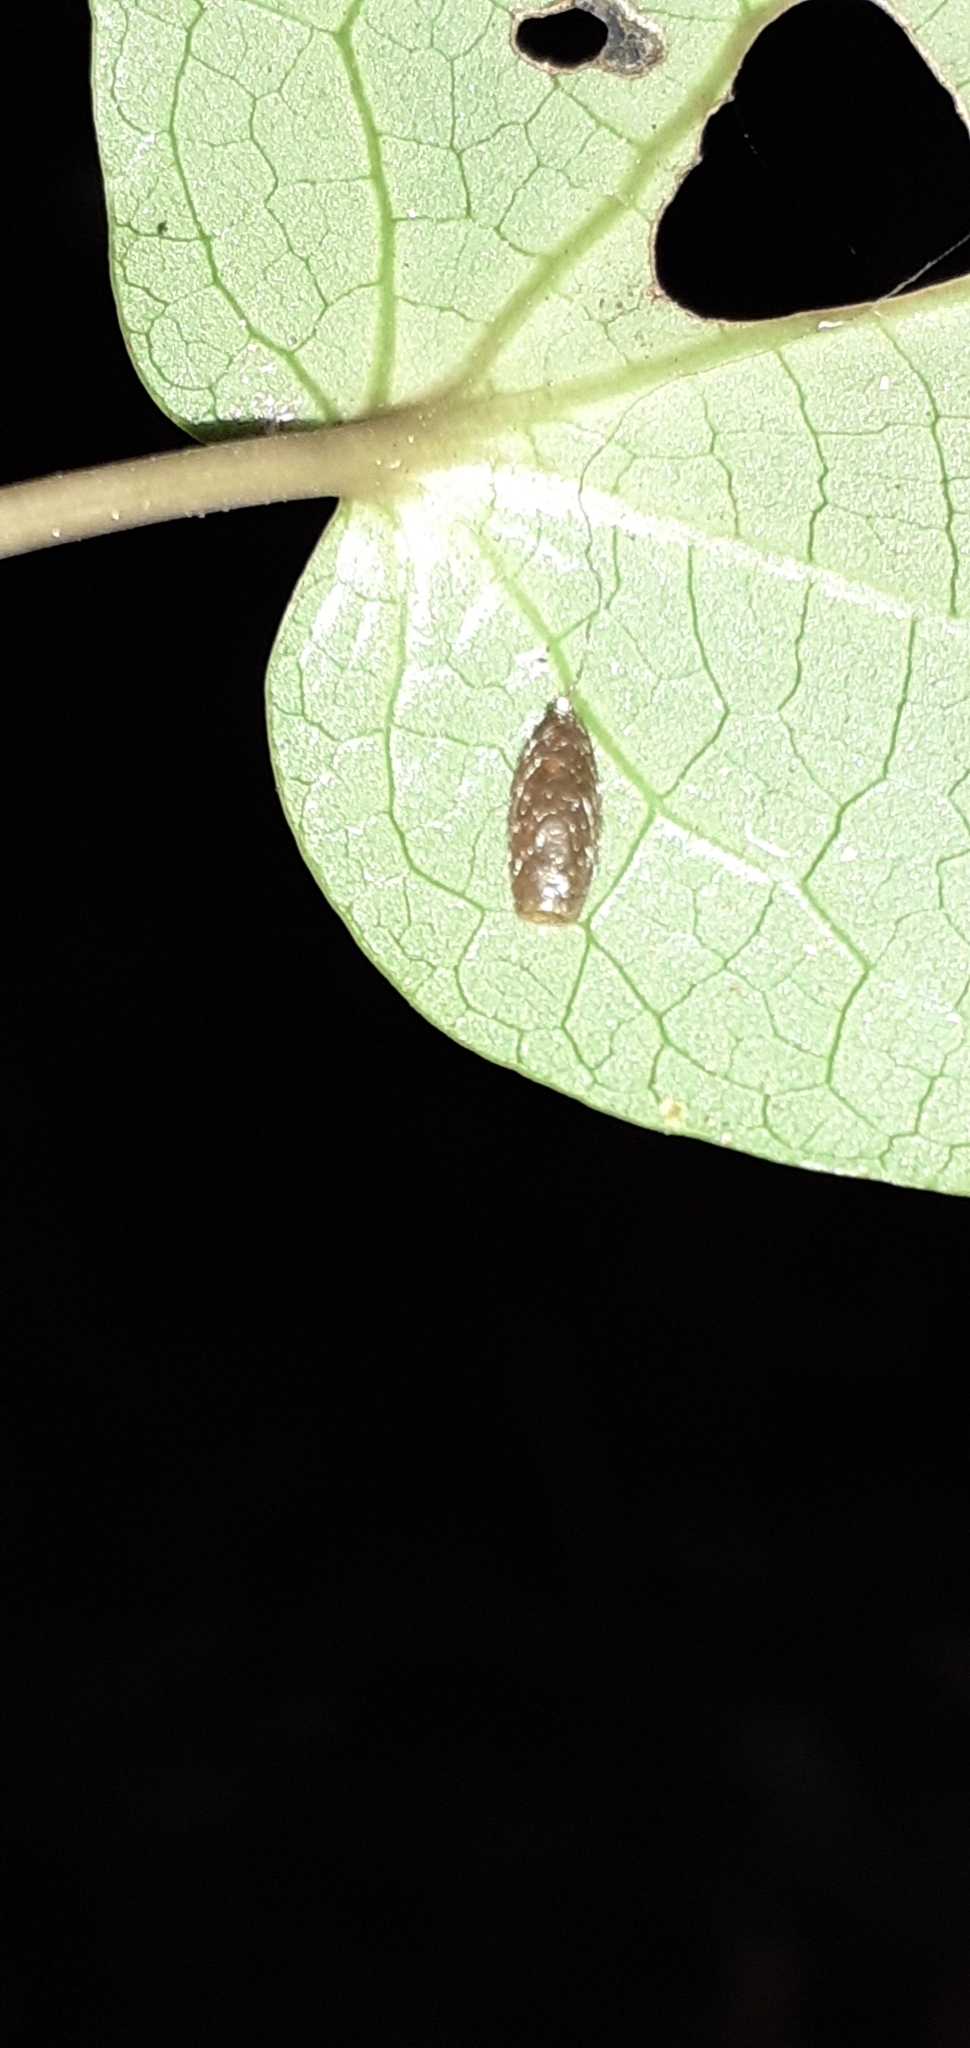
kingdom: Animalia
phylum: Arthropoda
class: Insecta
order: Hymenoptera
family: Braconidae
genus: Meteorus
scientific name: Meteorus pulchricornis
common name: Braconid wasp
